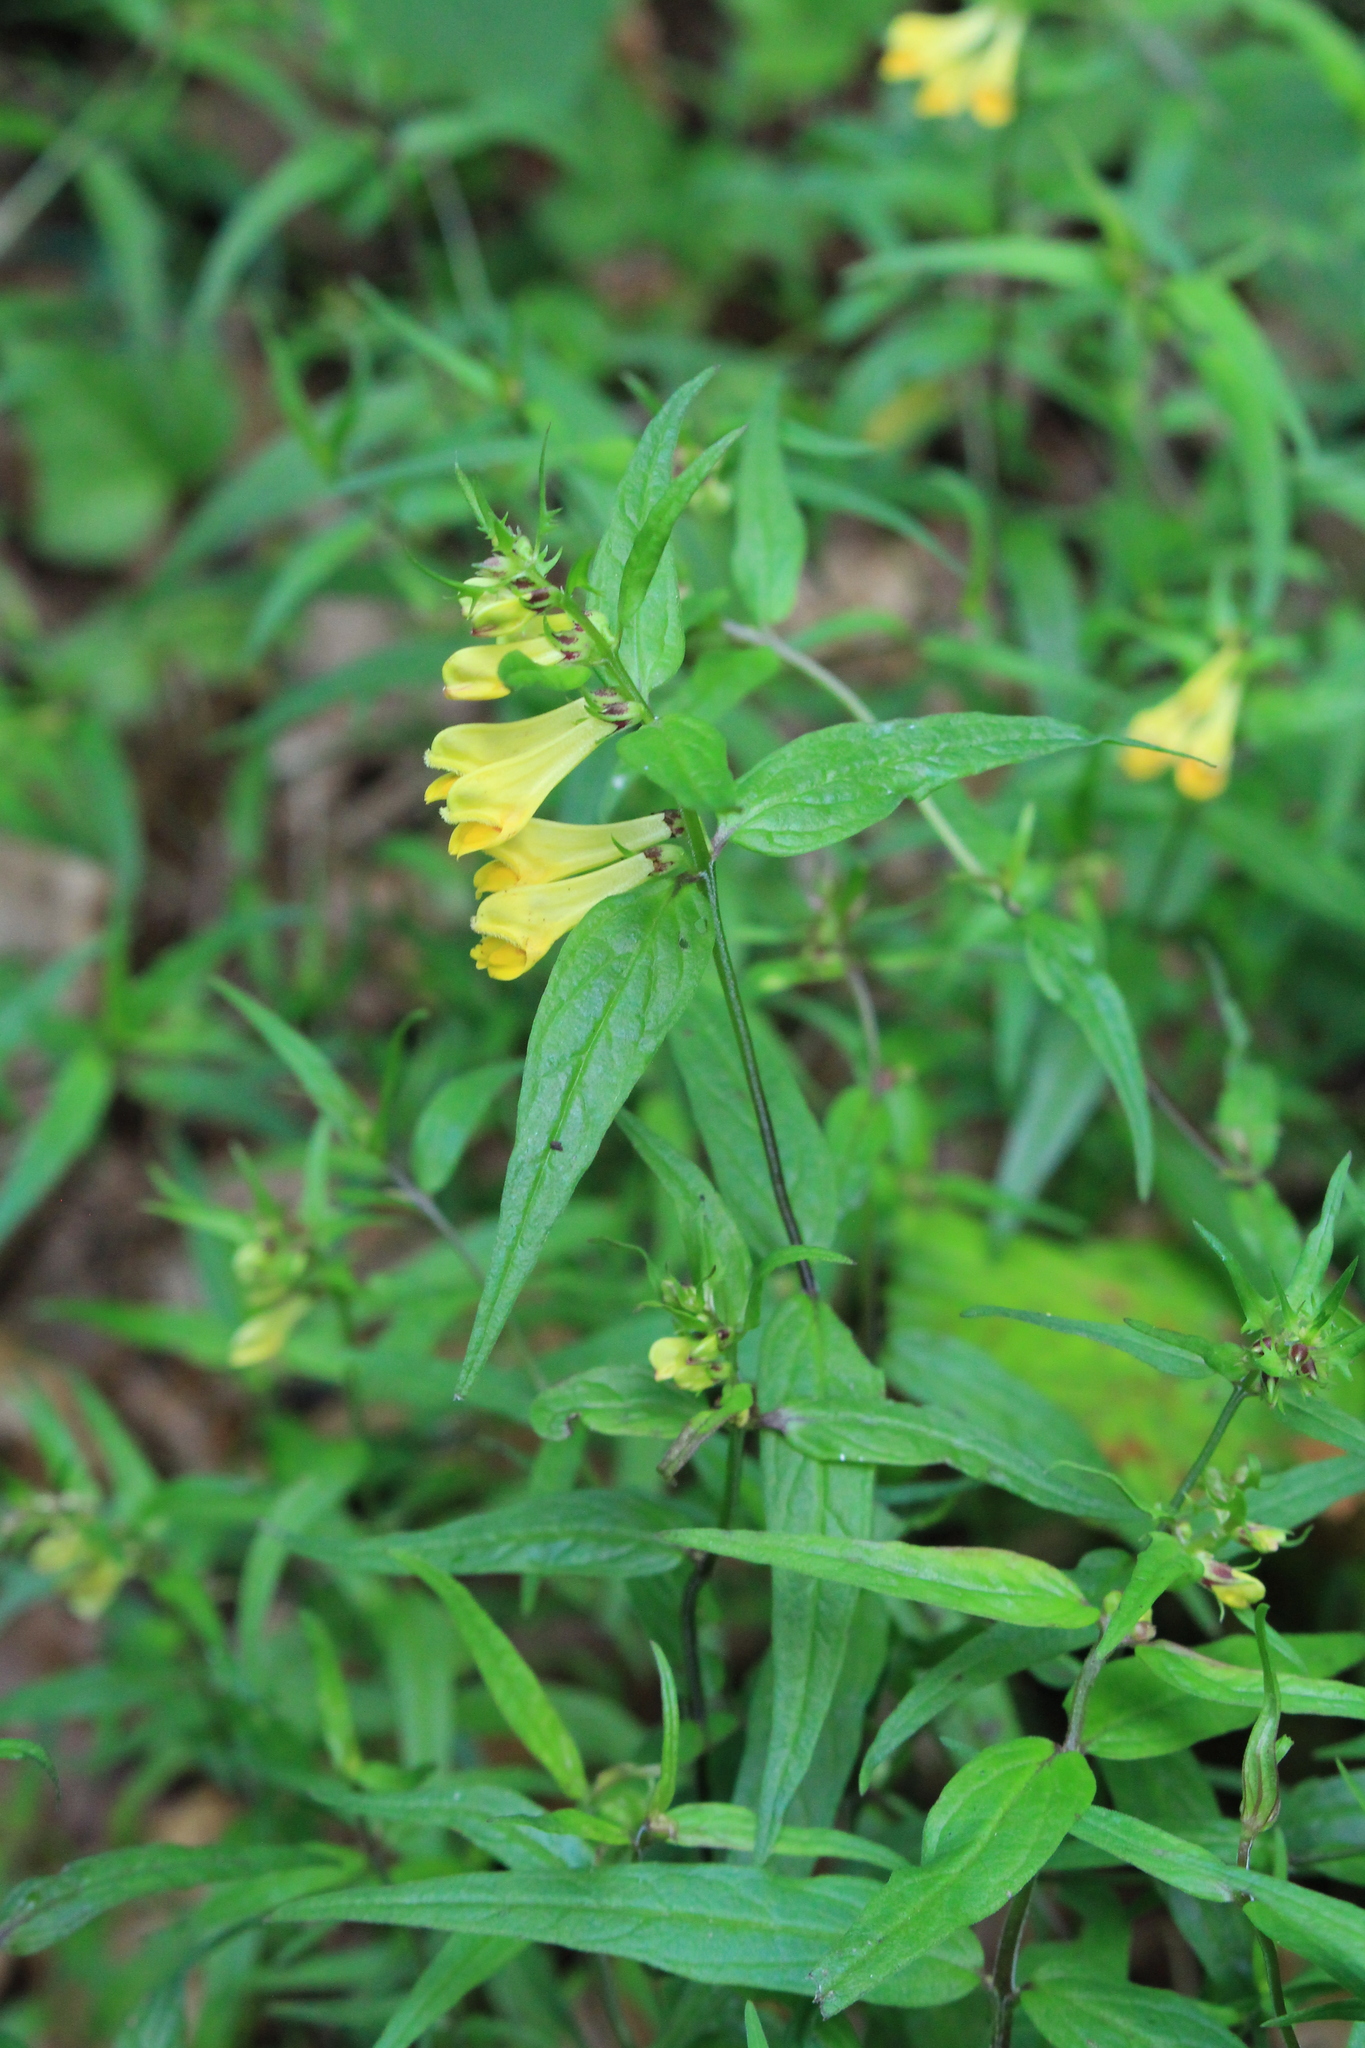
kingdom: Plantae
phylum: Tracheophyta
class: Magnoliopsida
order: Lamiales
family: Orobanchaceae
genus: Melampyrum
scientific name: Melampyrum pratense
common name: Common cow-wheat
